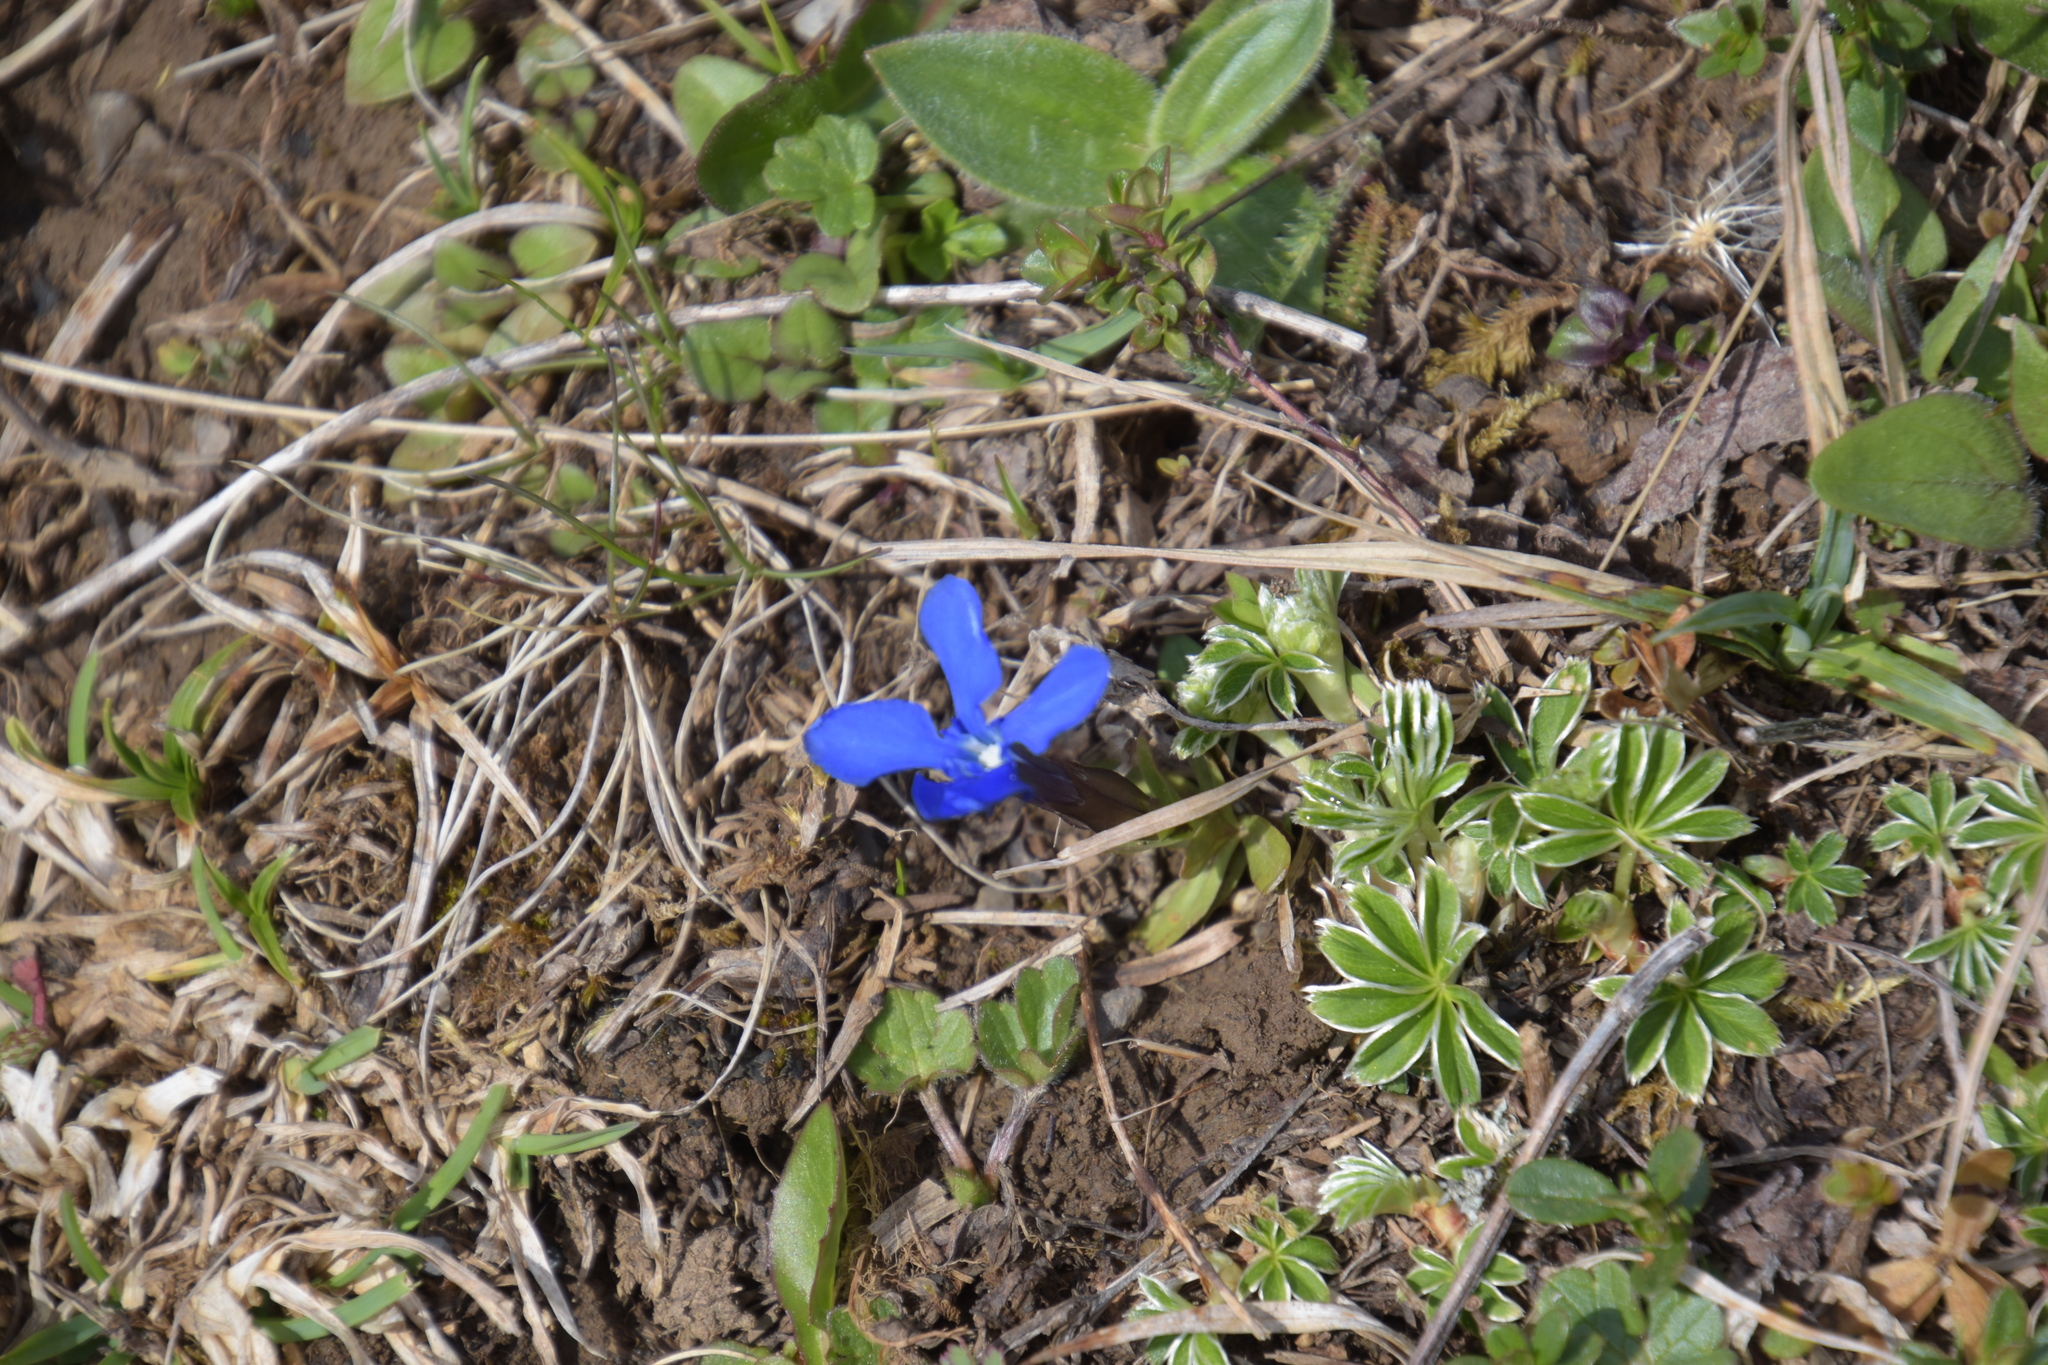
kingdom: Plantae
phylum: Tracheophyta
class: Magnoliopsida
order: Gentianales
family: Gentianaceae
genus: Gentiana
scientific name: Gentiana verna
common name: Spring gentian
